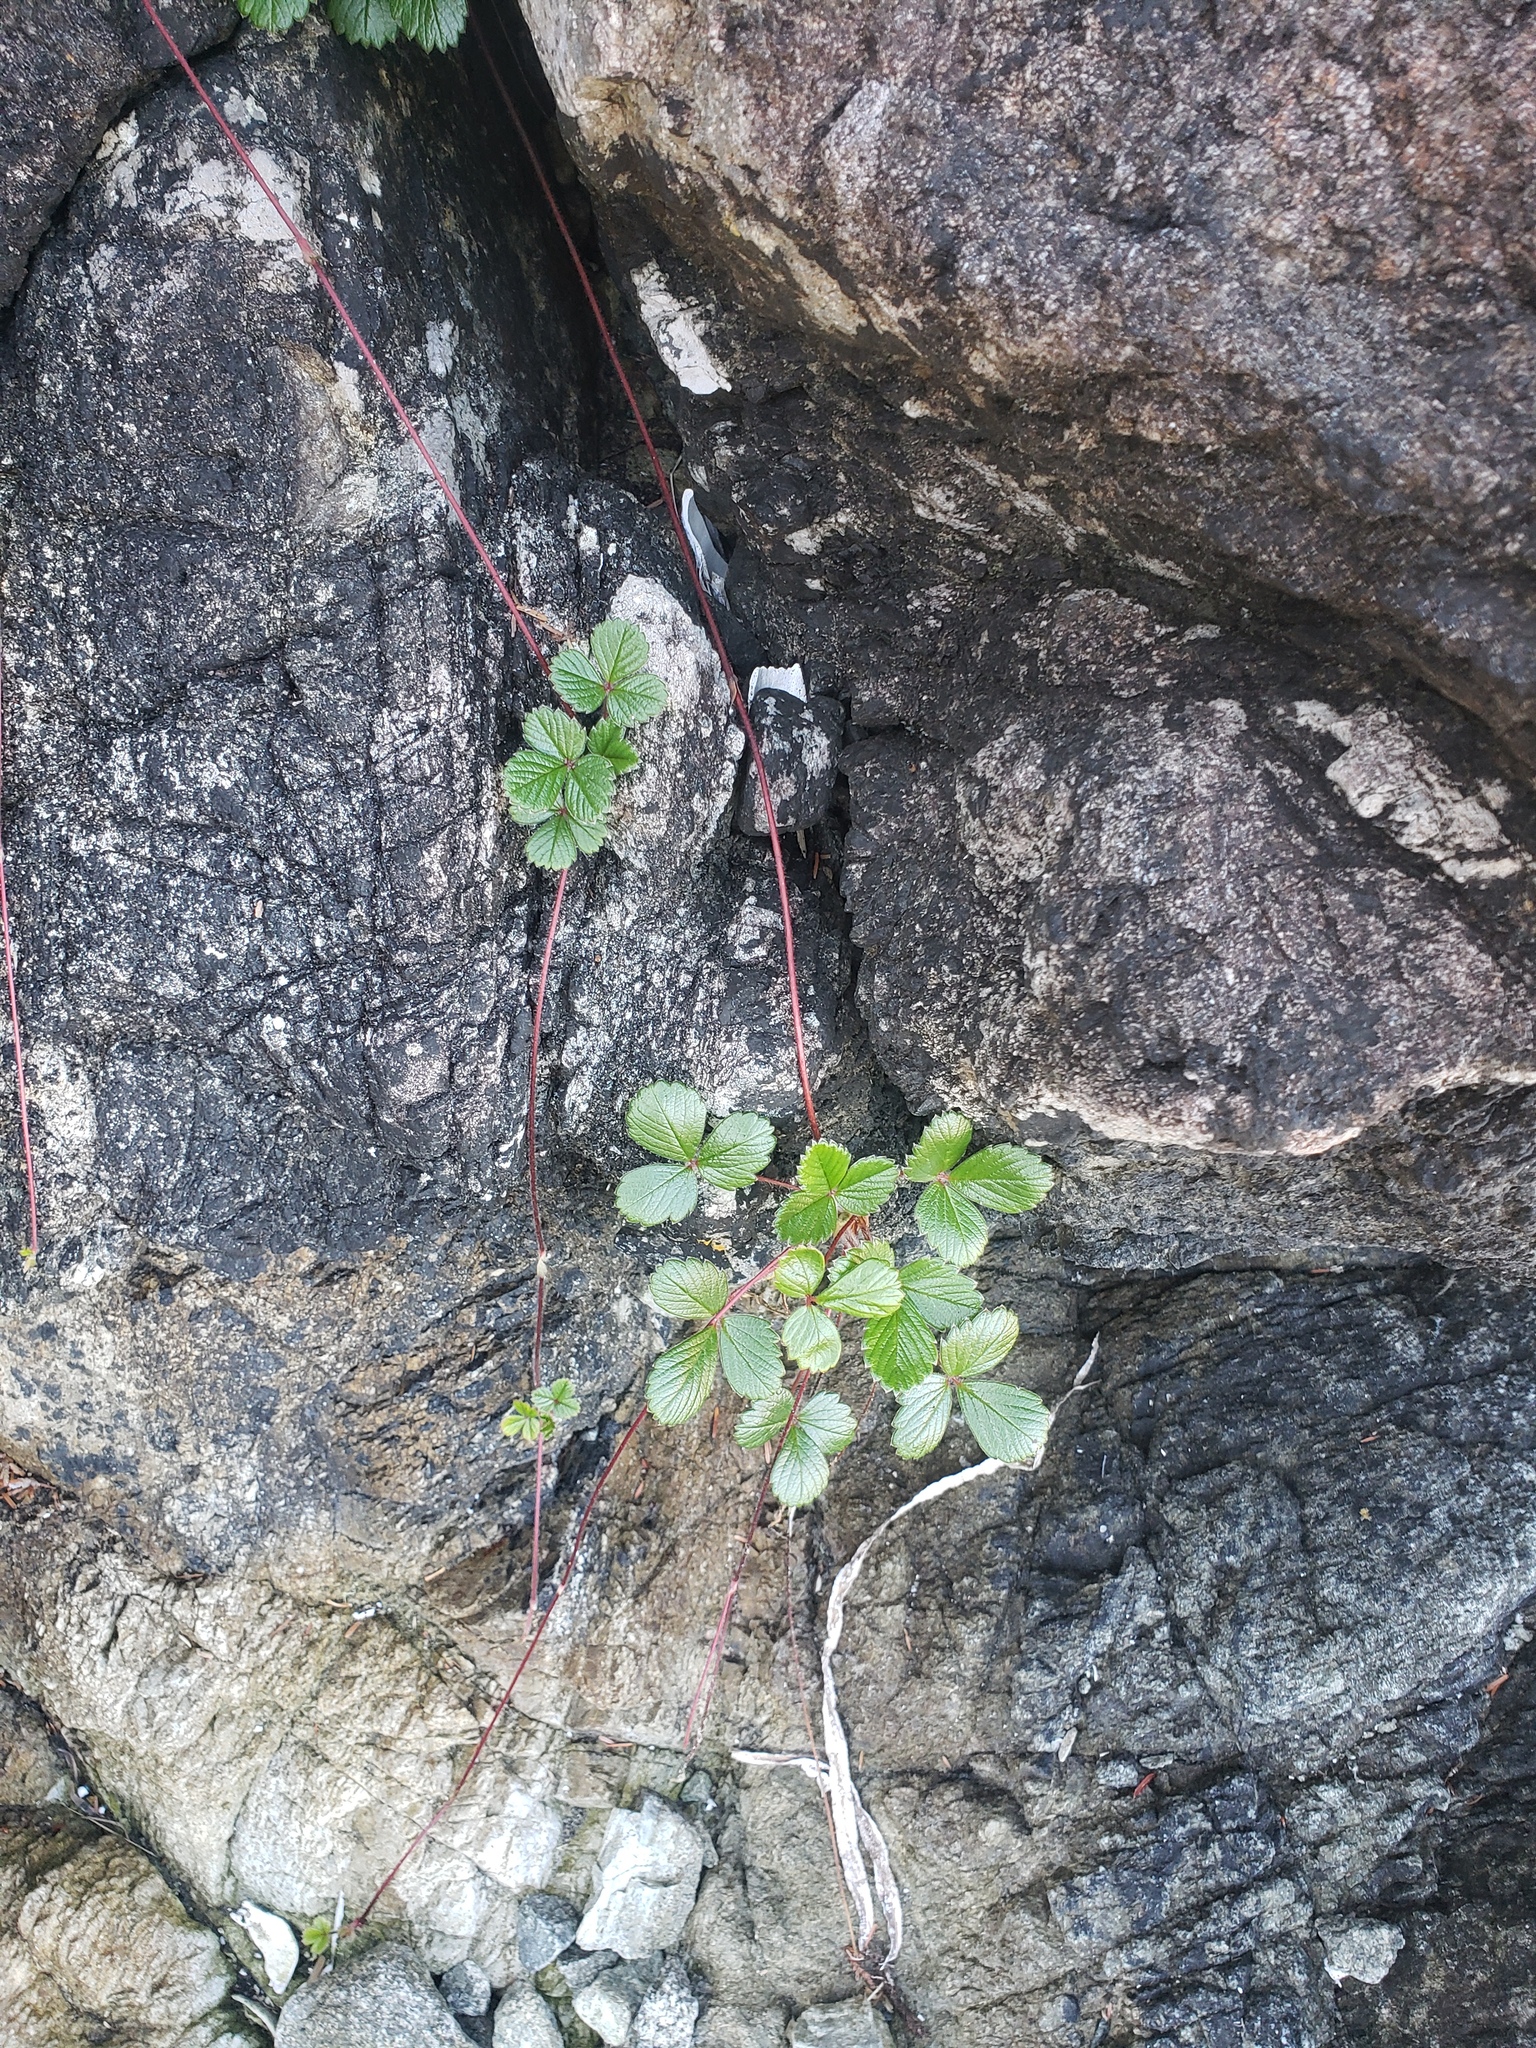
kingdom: Plantae
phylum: Tracheophyta
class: Magnoliopsida
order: Rosales
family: Rosaceae
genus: Fragaria
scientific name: Fragaria chiloensis
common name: Beach strawberry
